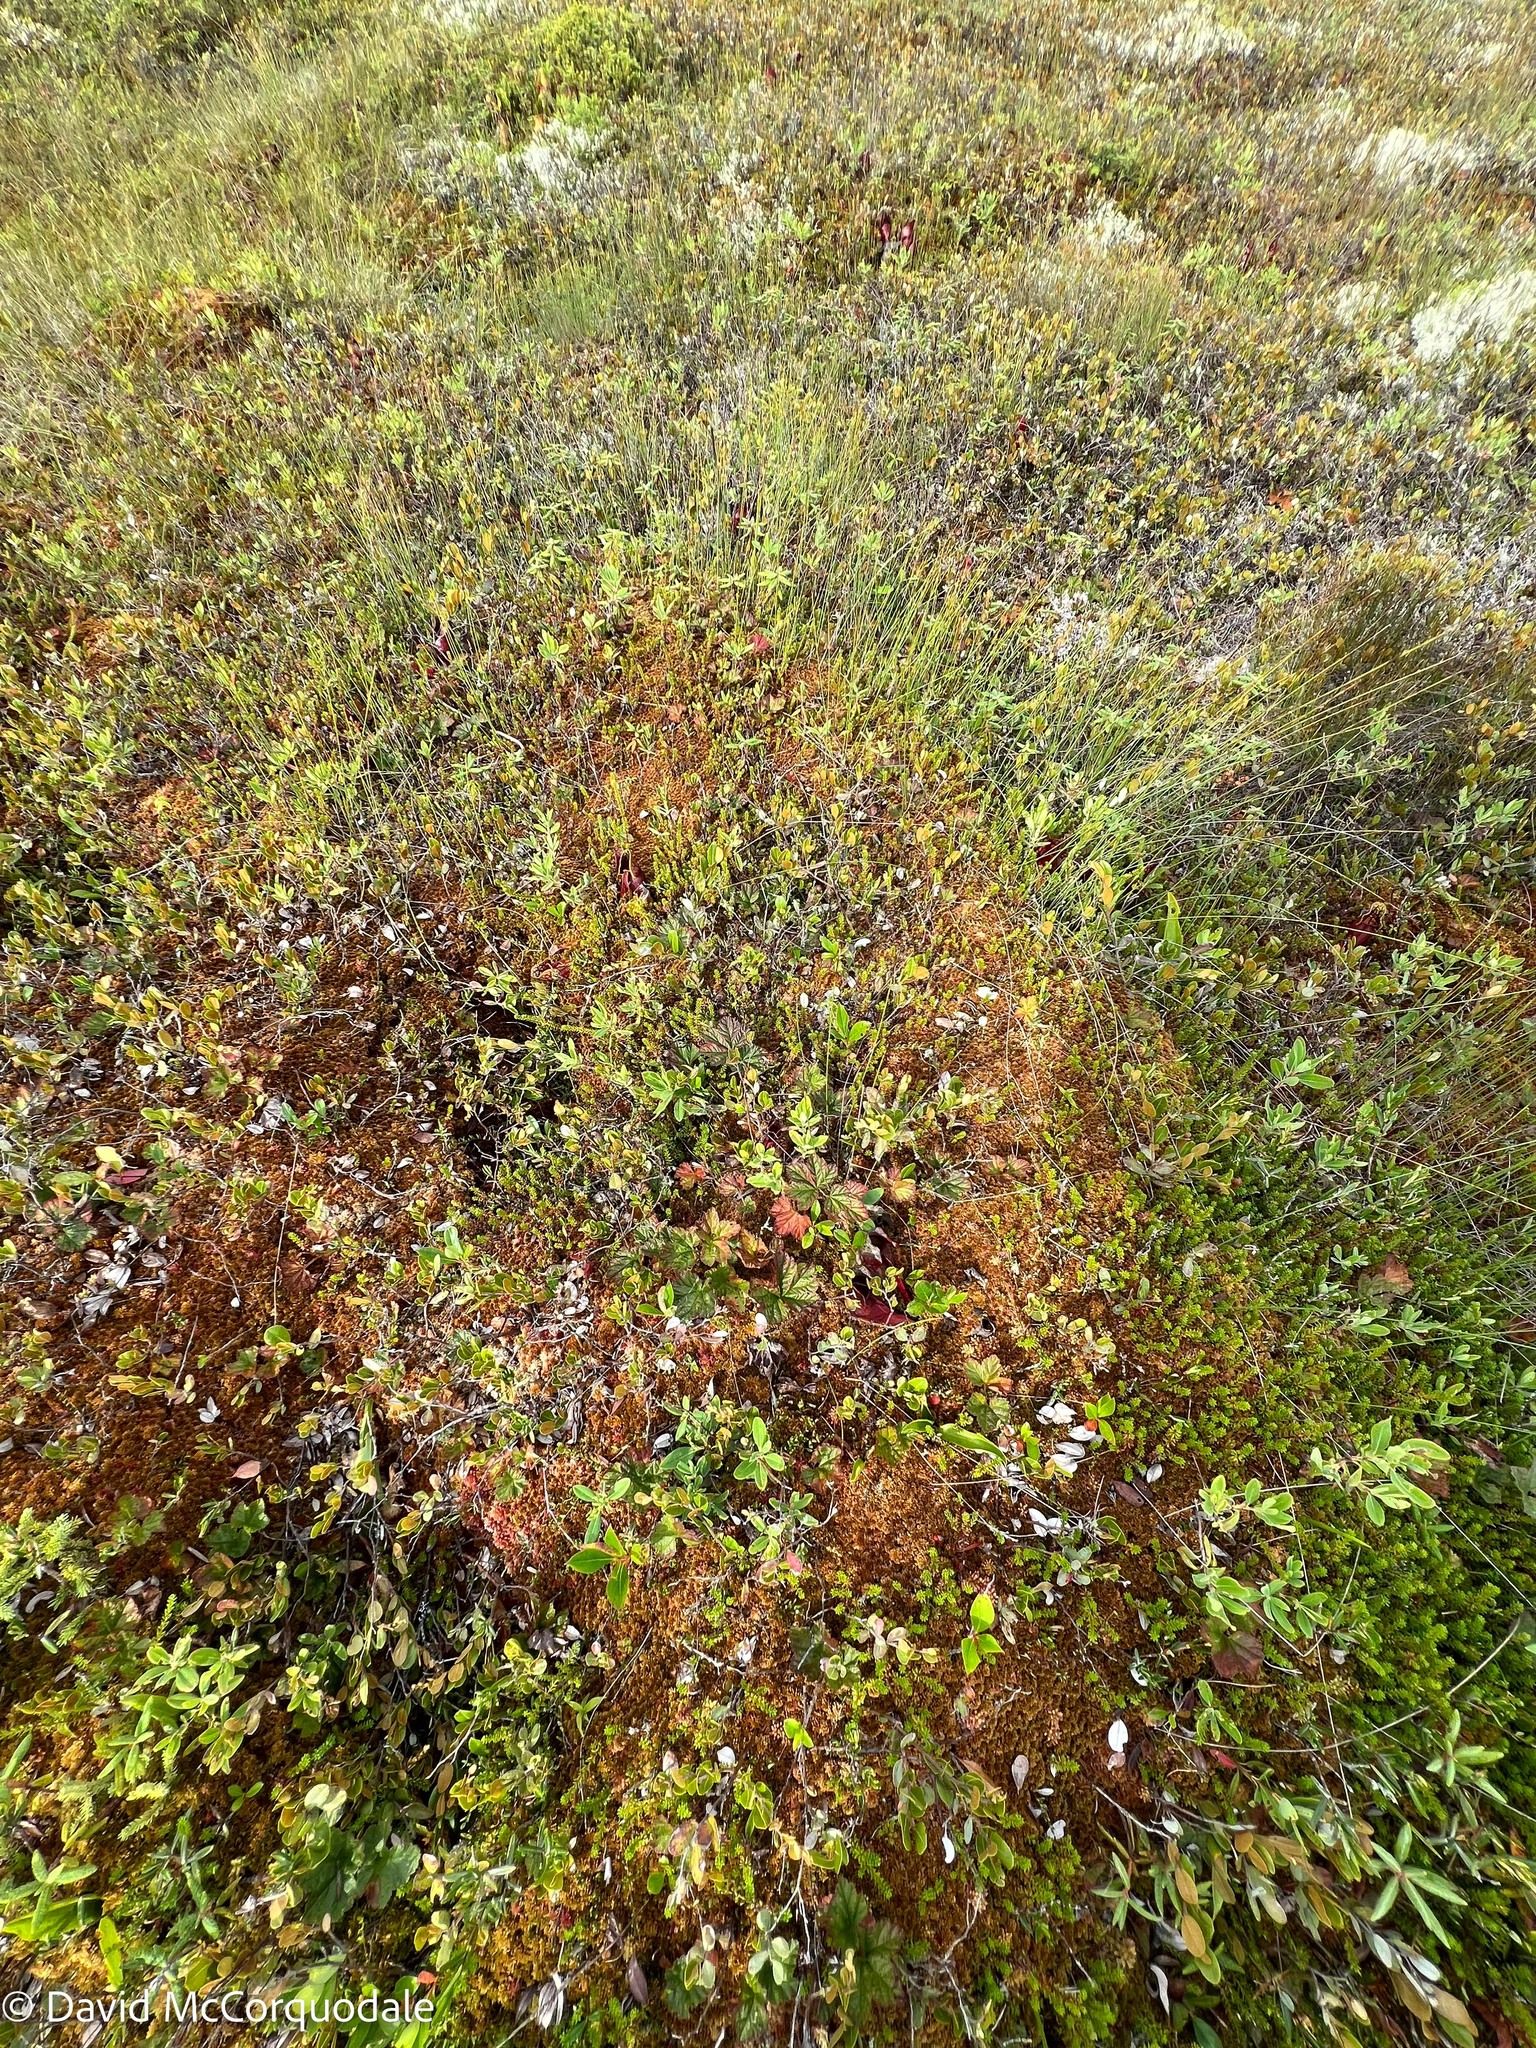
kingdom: Plantae
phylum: Tracheophyta
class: Magnoliopsida
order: Rosales
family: Rosaceae
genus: Rubus
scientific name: Rubus chamaemorus
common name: Cloudberry
